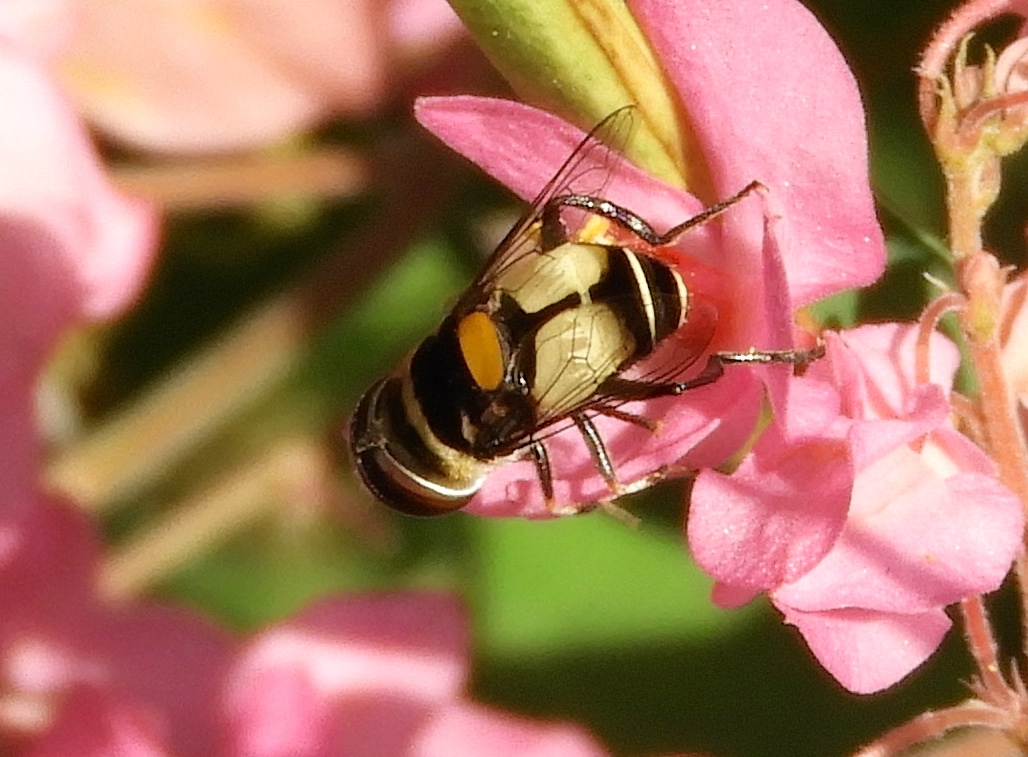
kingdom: Animalia
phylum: Arthropoda
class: Insecta
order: Diptera
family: Syrphidae
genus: Palpada
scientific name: Palpada albifrons
